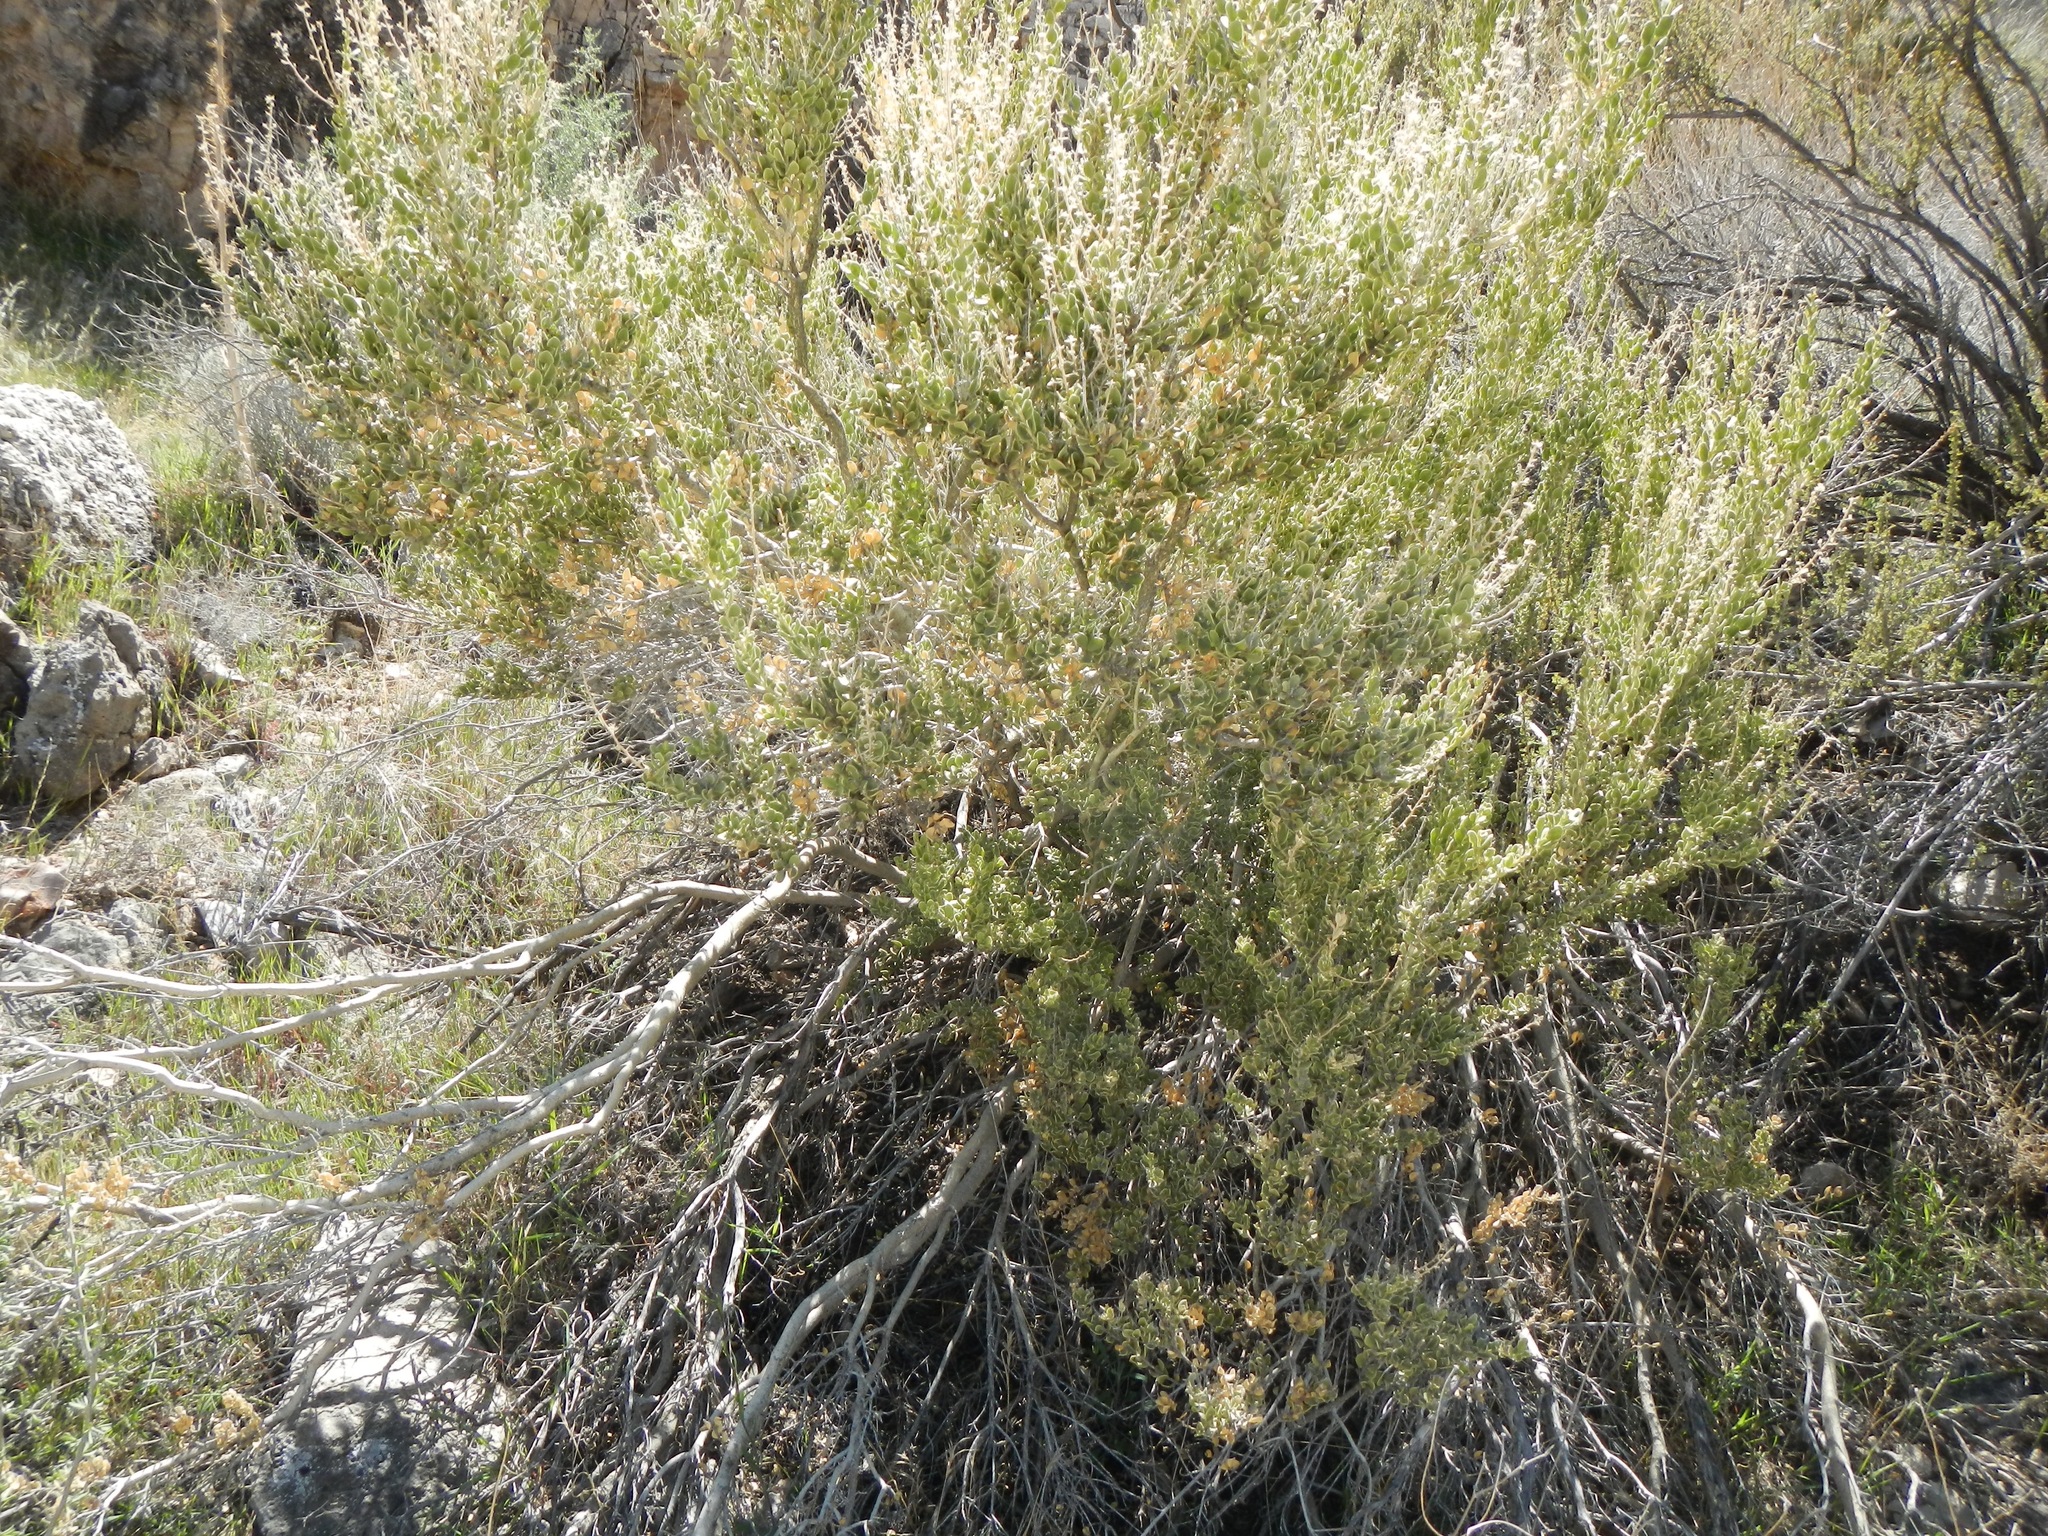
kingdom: Plantae
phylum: Tracheophyta
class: Magnoliopsida
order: Celastrales
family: Celastraceae
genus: Mortonia
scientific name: Mortonia utahensis
